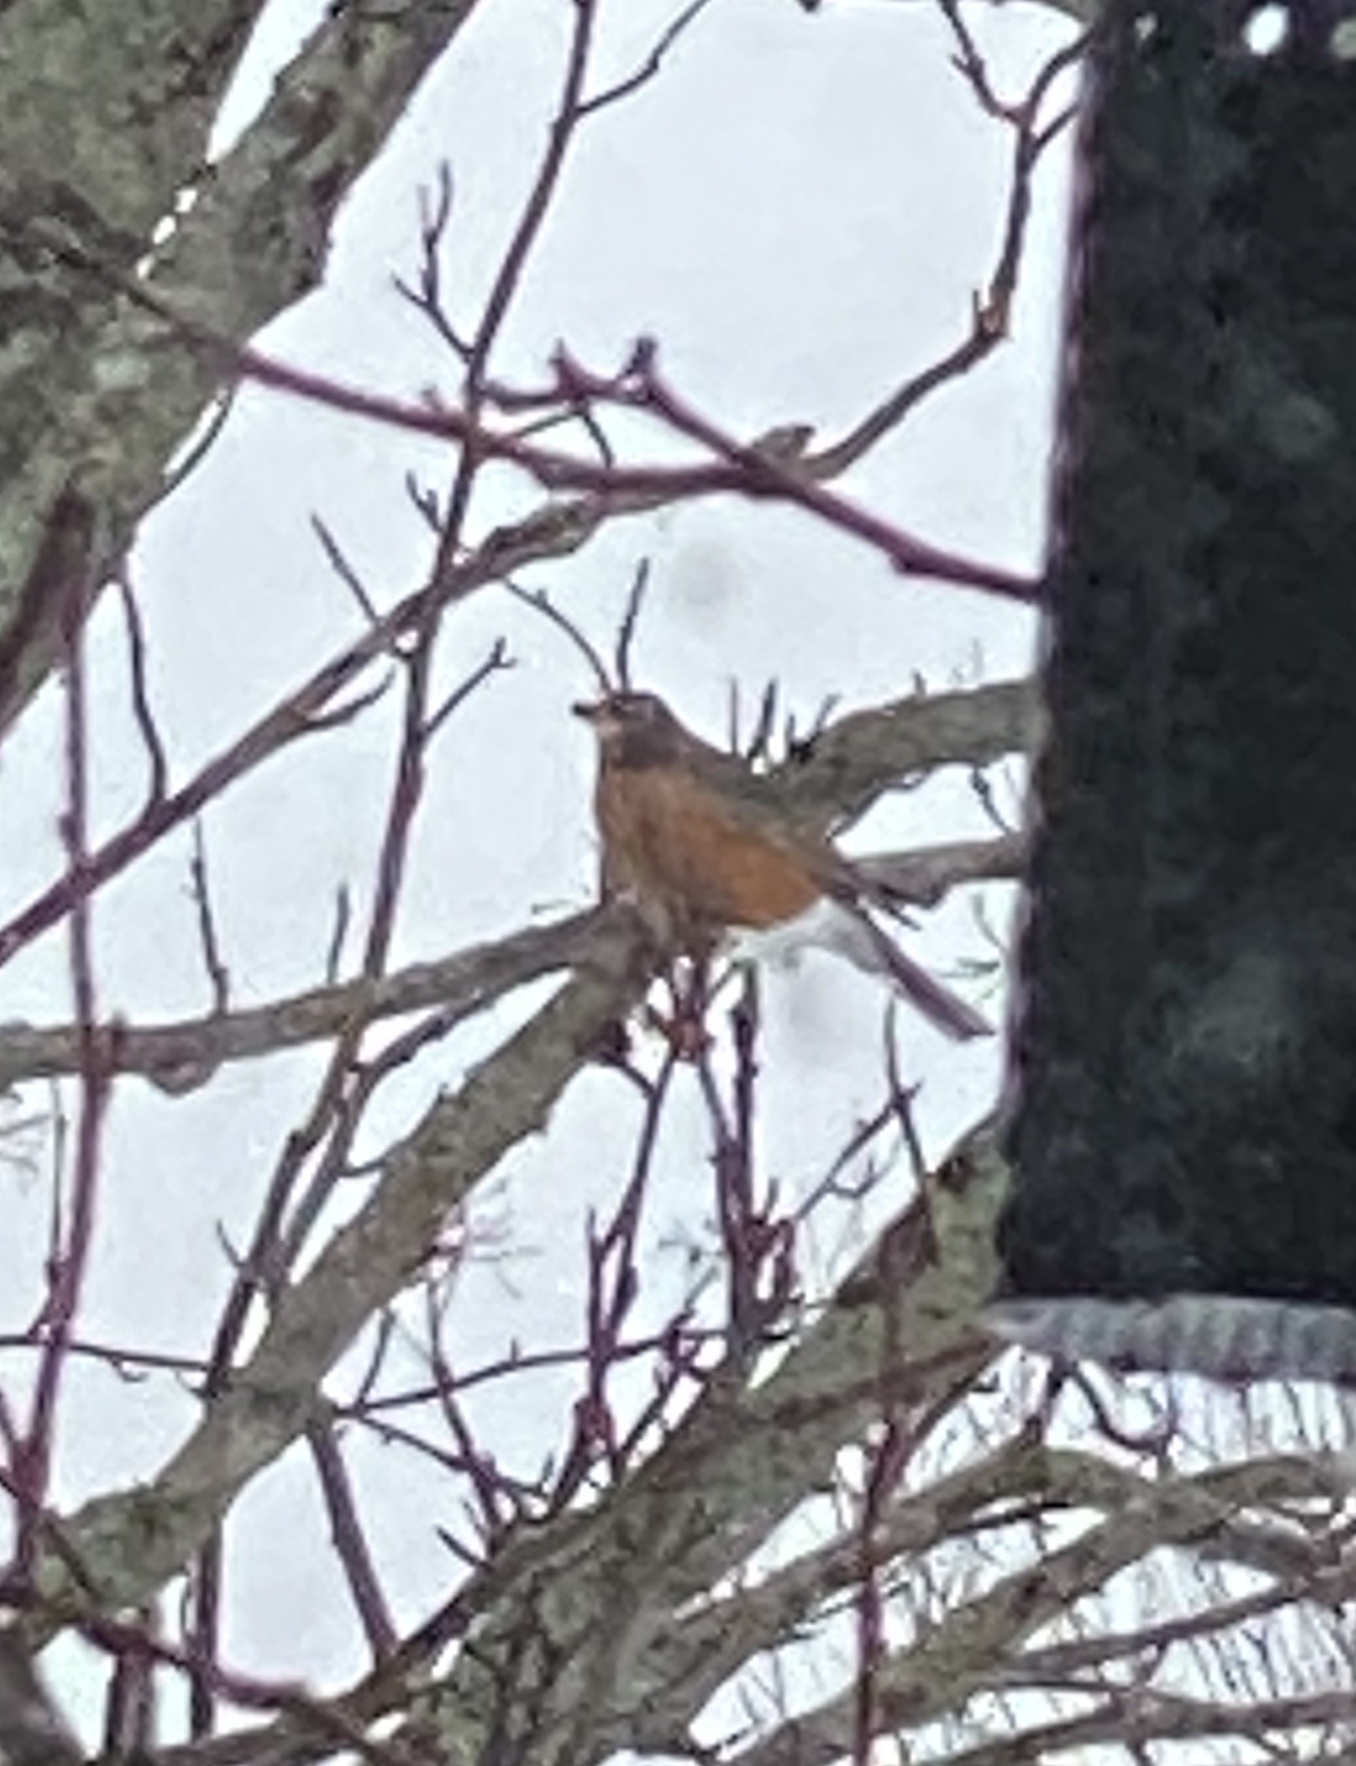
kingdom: Animalia
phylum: Chordata
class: Aves
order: Passeriformes
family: Turdidae
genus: Turdus
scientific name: Turdus migratorius
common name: American robin
